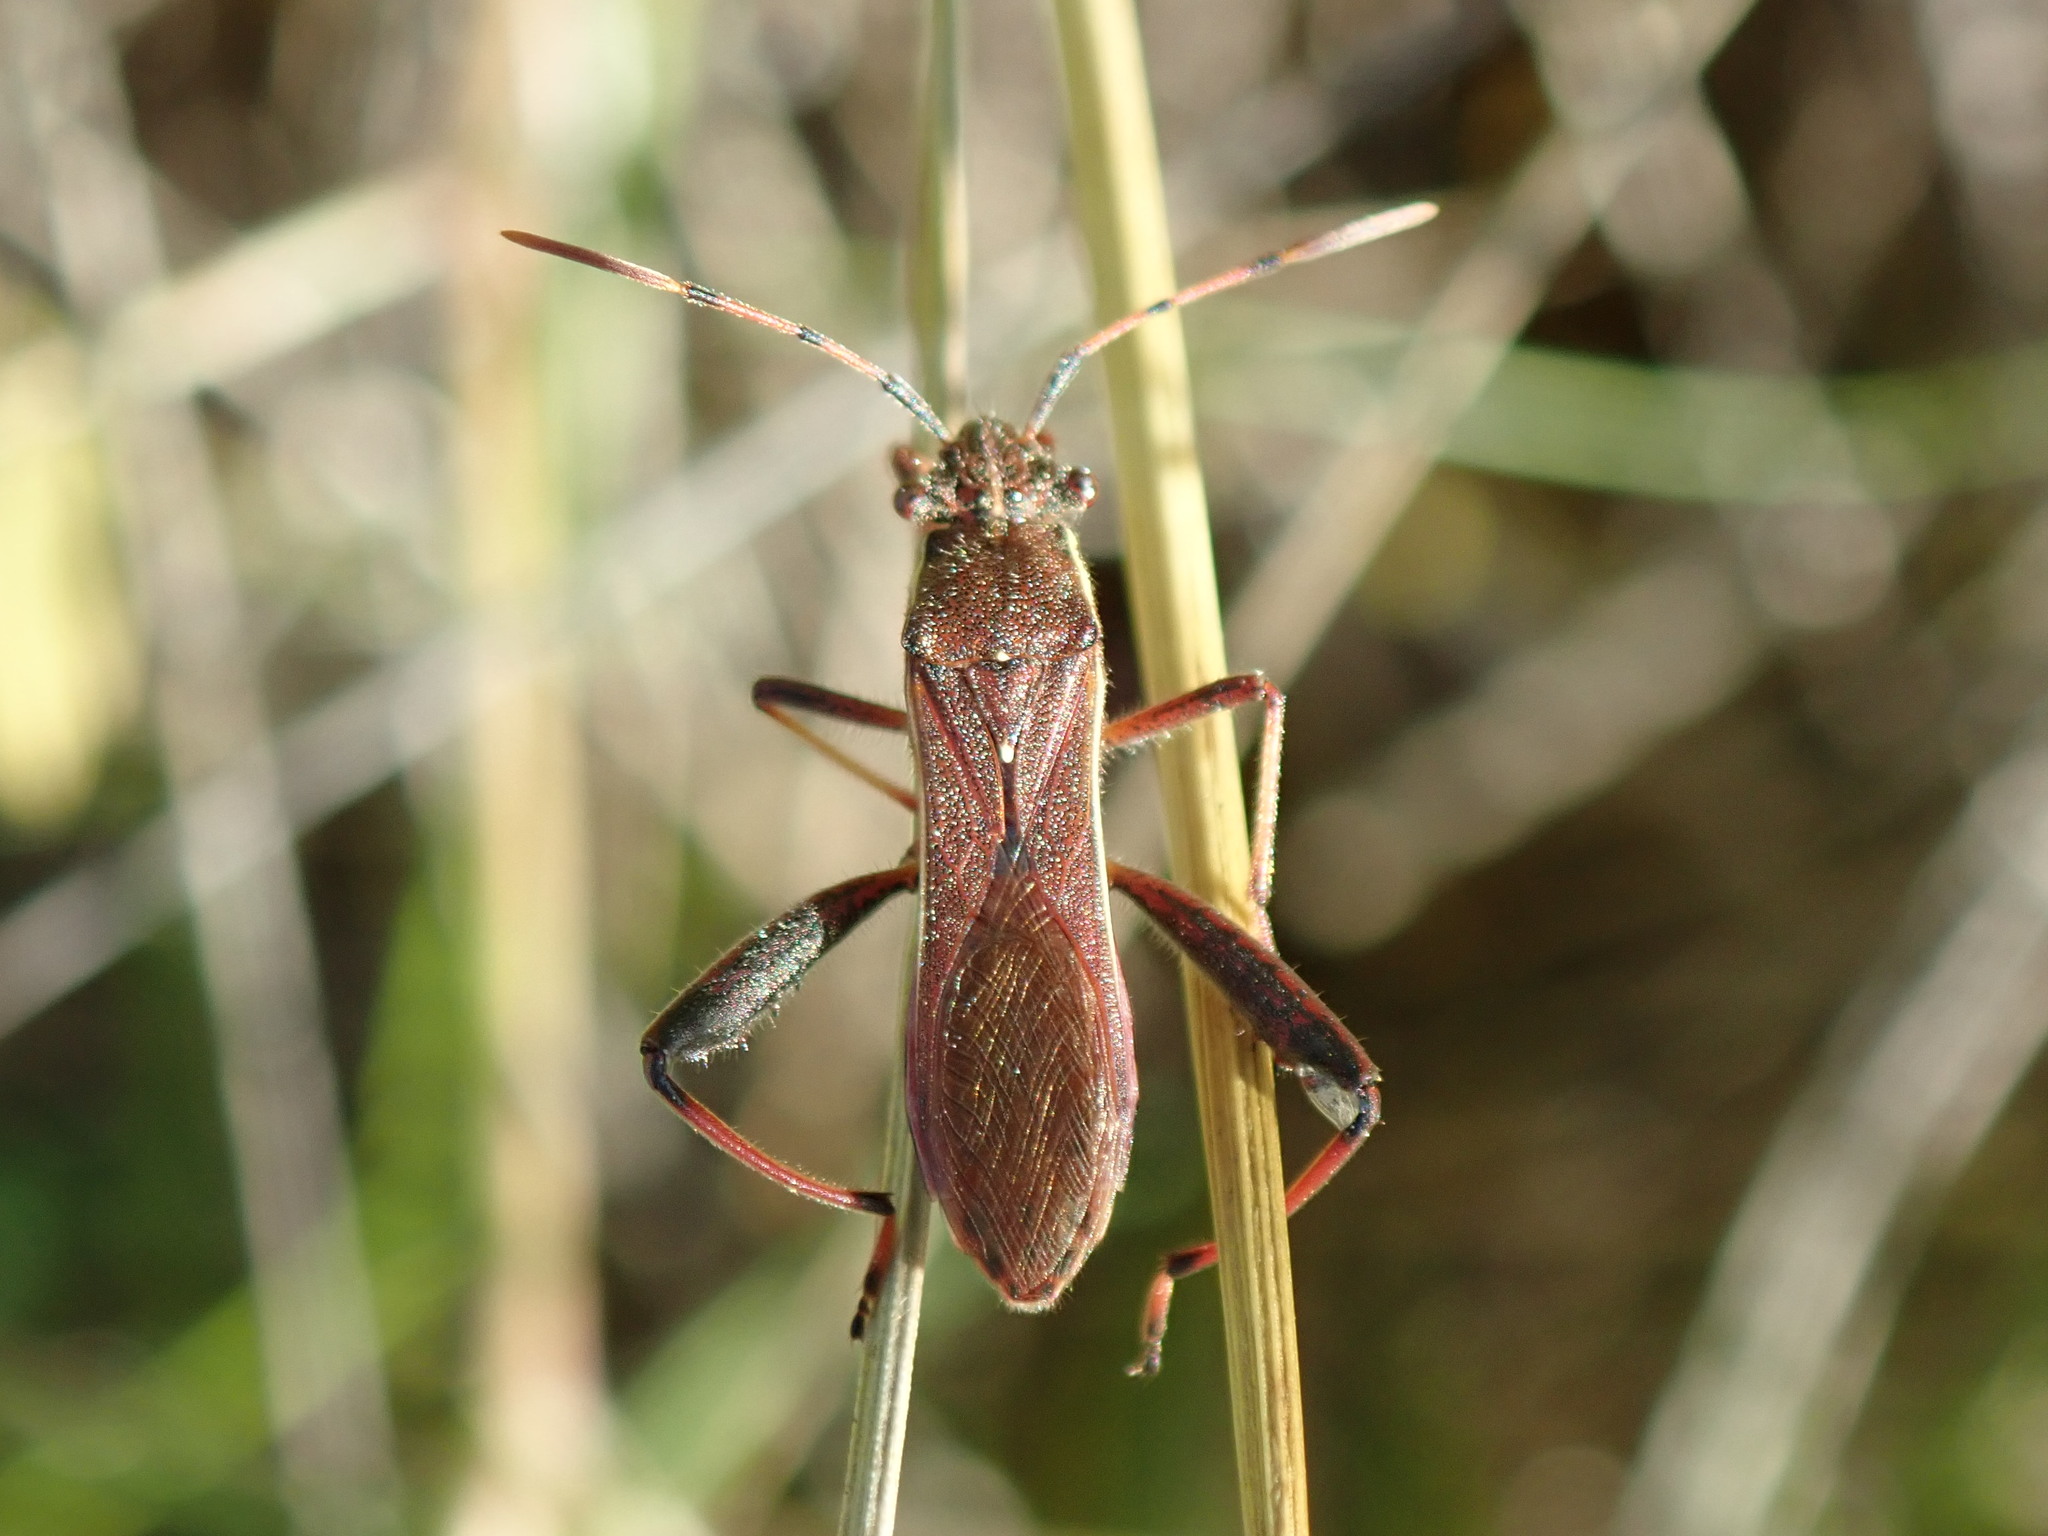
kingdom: Animalia
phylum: Arthropoda
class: Insecta
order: Hemiptera
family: Alydidae
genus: Camptopus
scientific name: Camptopus lateralis
